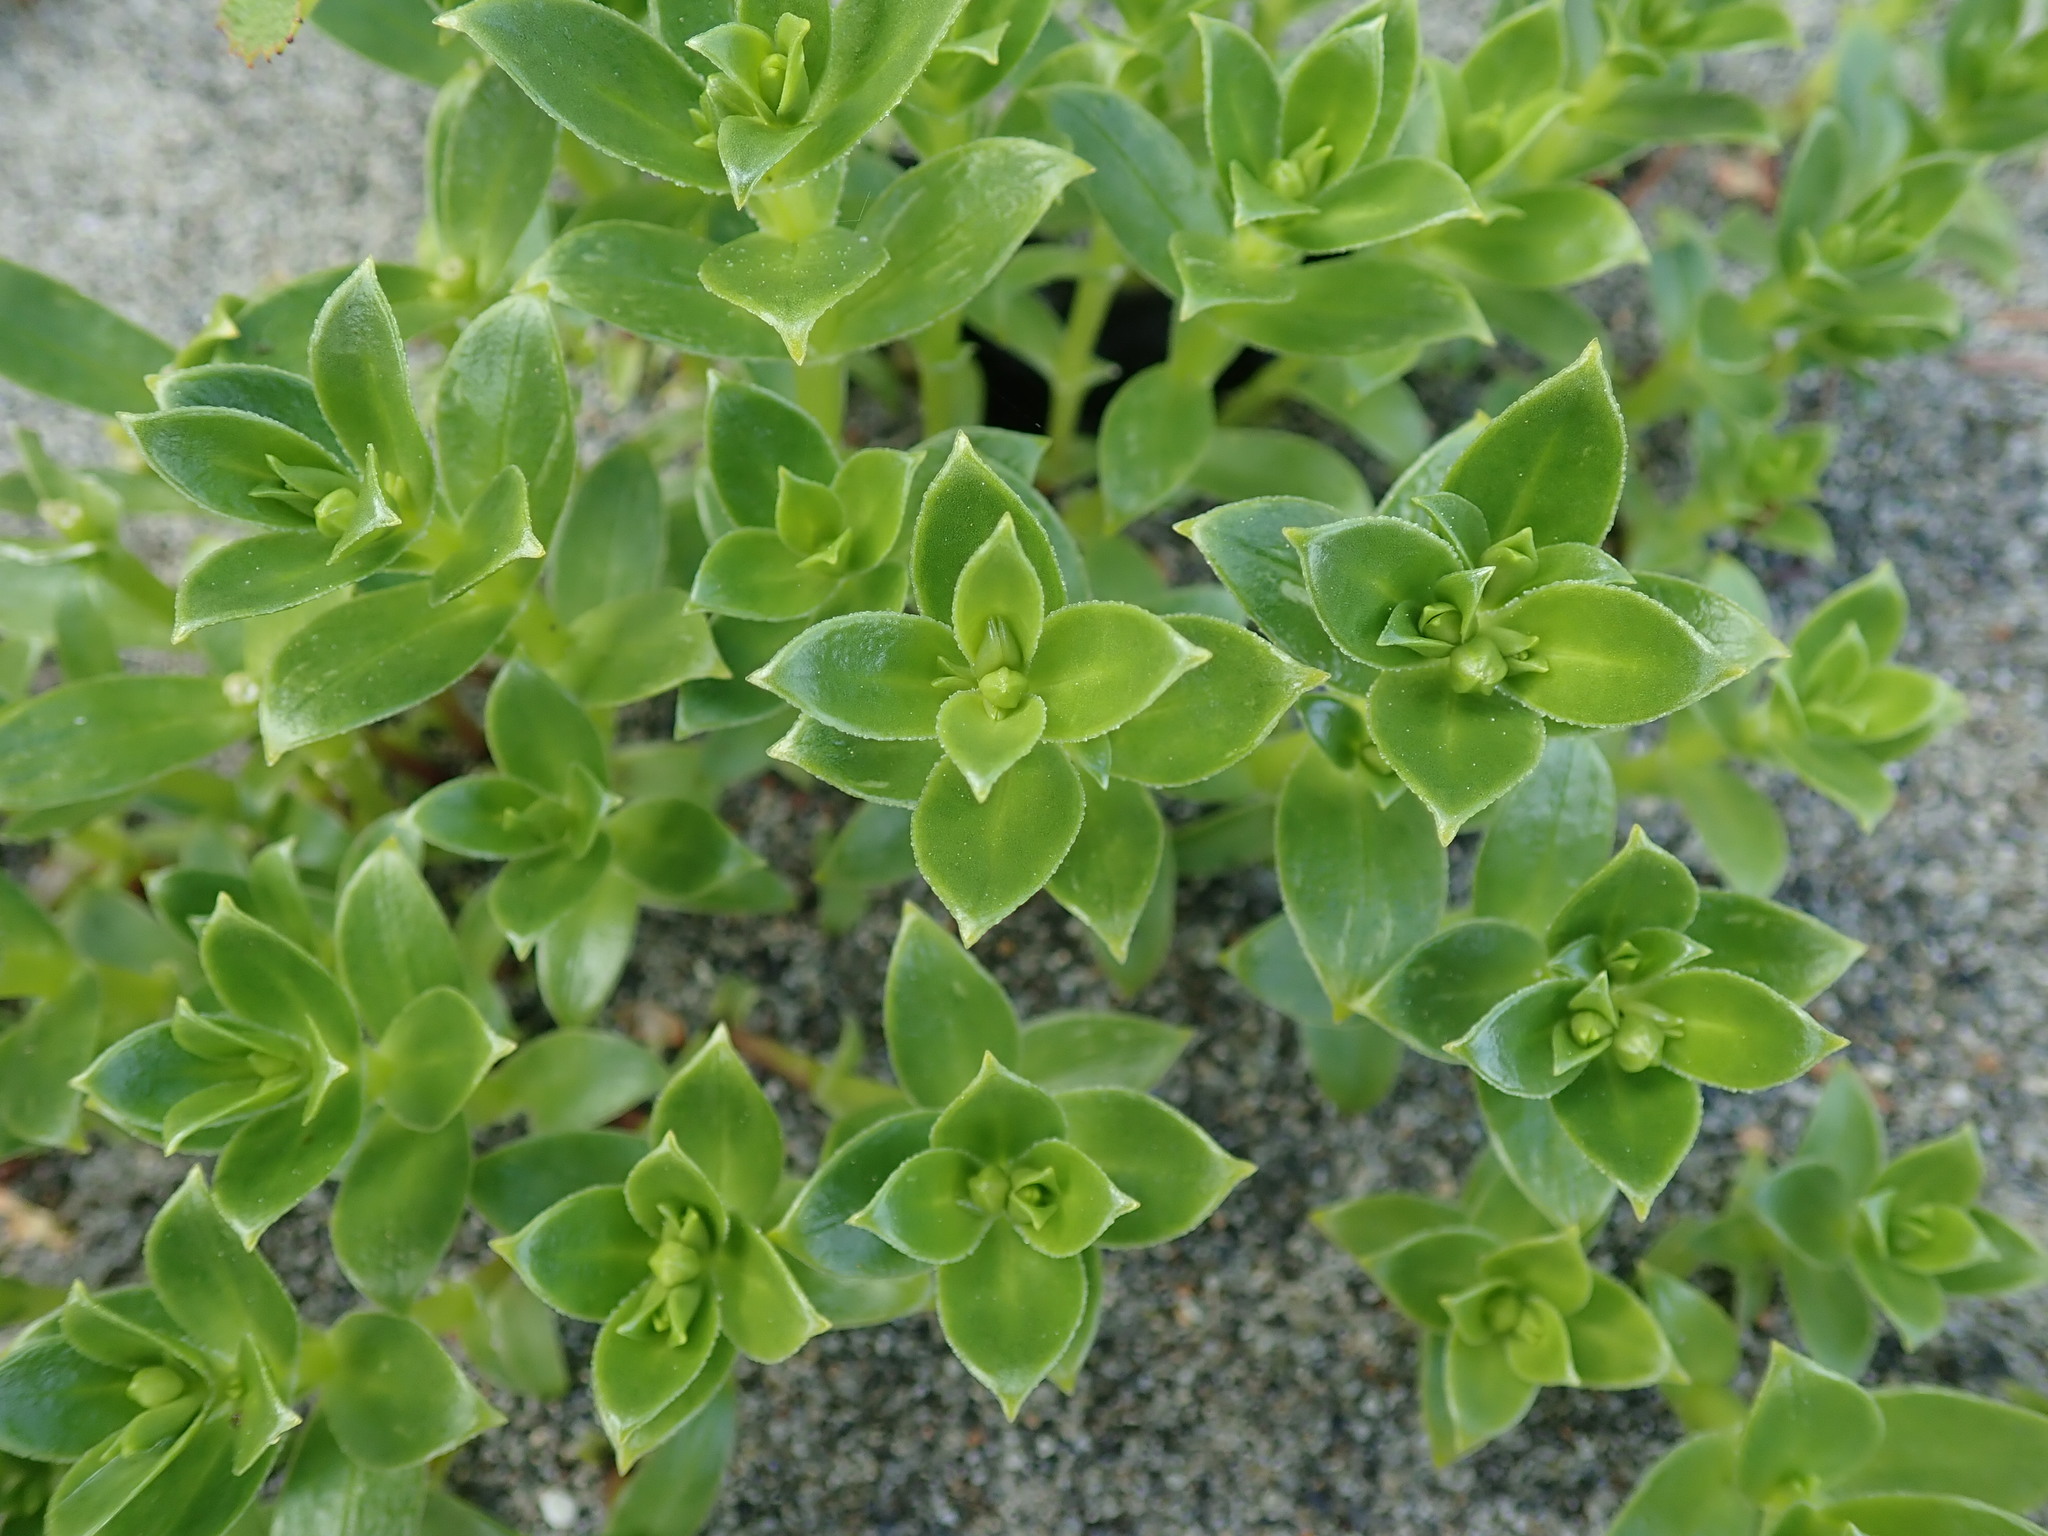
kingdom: Plantae
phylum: Tracheophyta
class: Magnoliopsida
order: Caryophyllales
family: Caryophyllaceae
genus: Honckenya
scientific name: Honckenya peploides
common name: Sea sandwort
